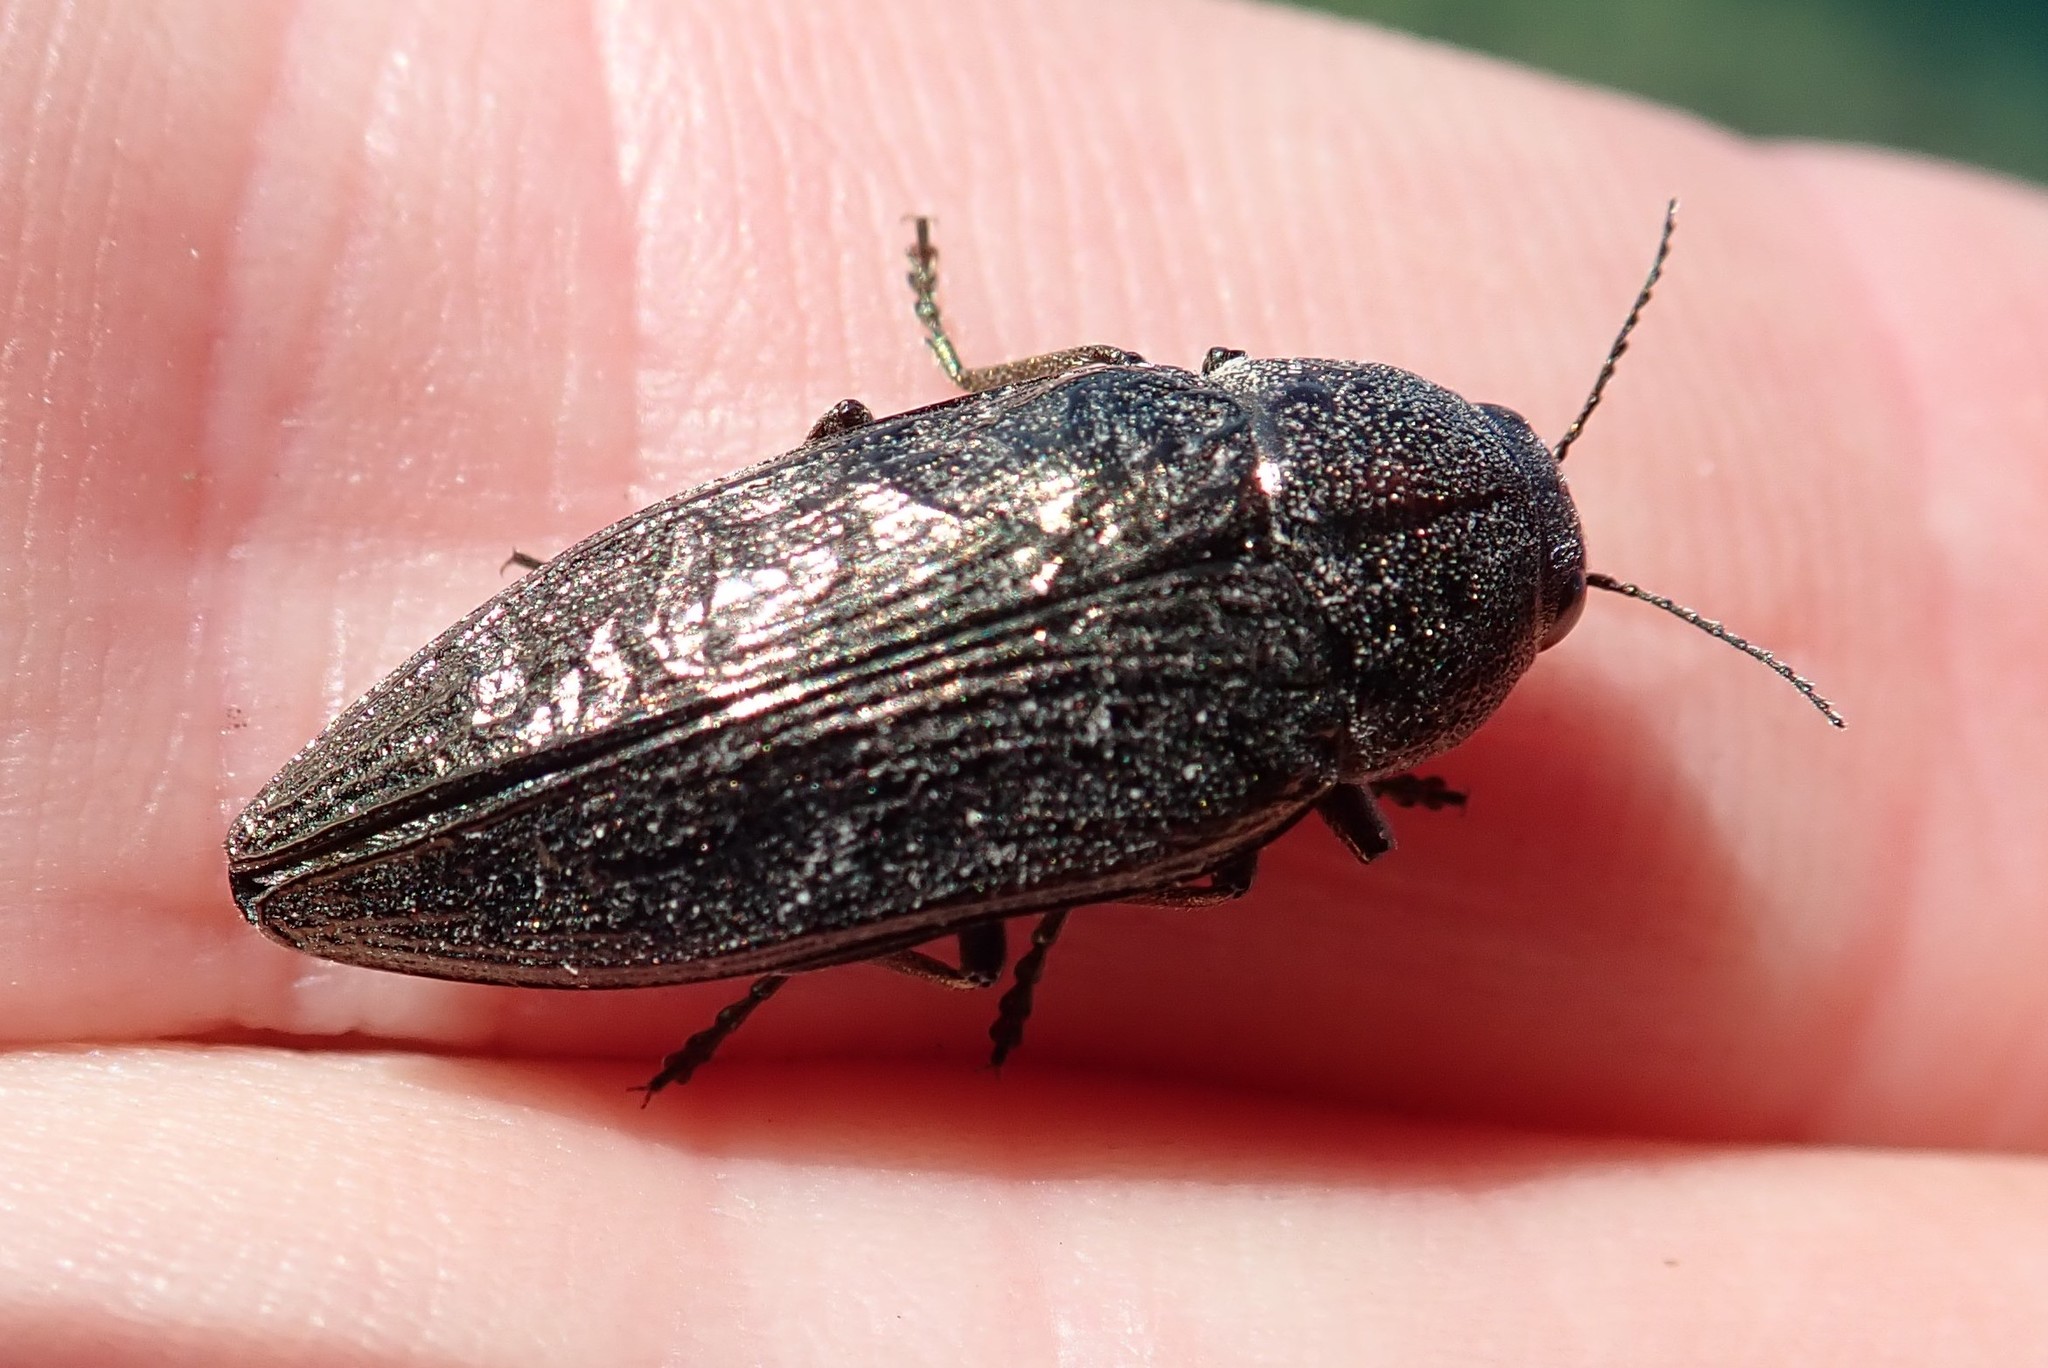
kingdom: Animalia
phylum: Arthropoda
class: Insecta
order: Coleoptera
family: Buprestidae
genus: Buprestis
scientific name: Buprestis maculativentris
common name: Spotted-belly buprestid beetle
